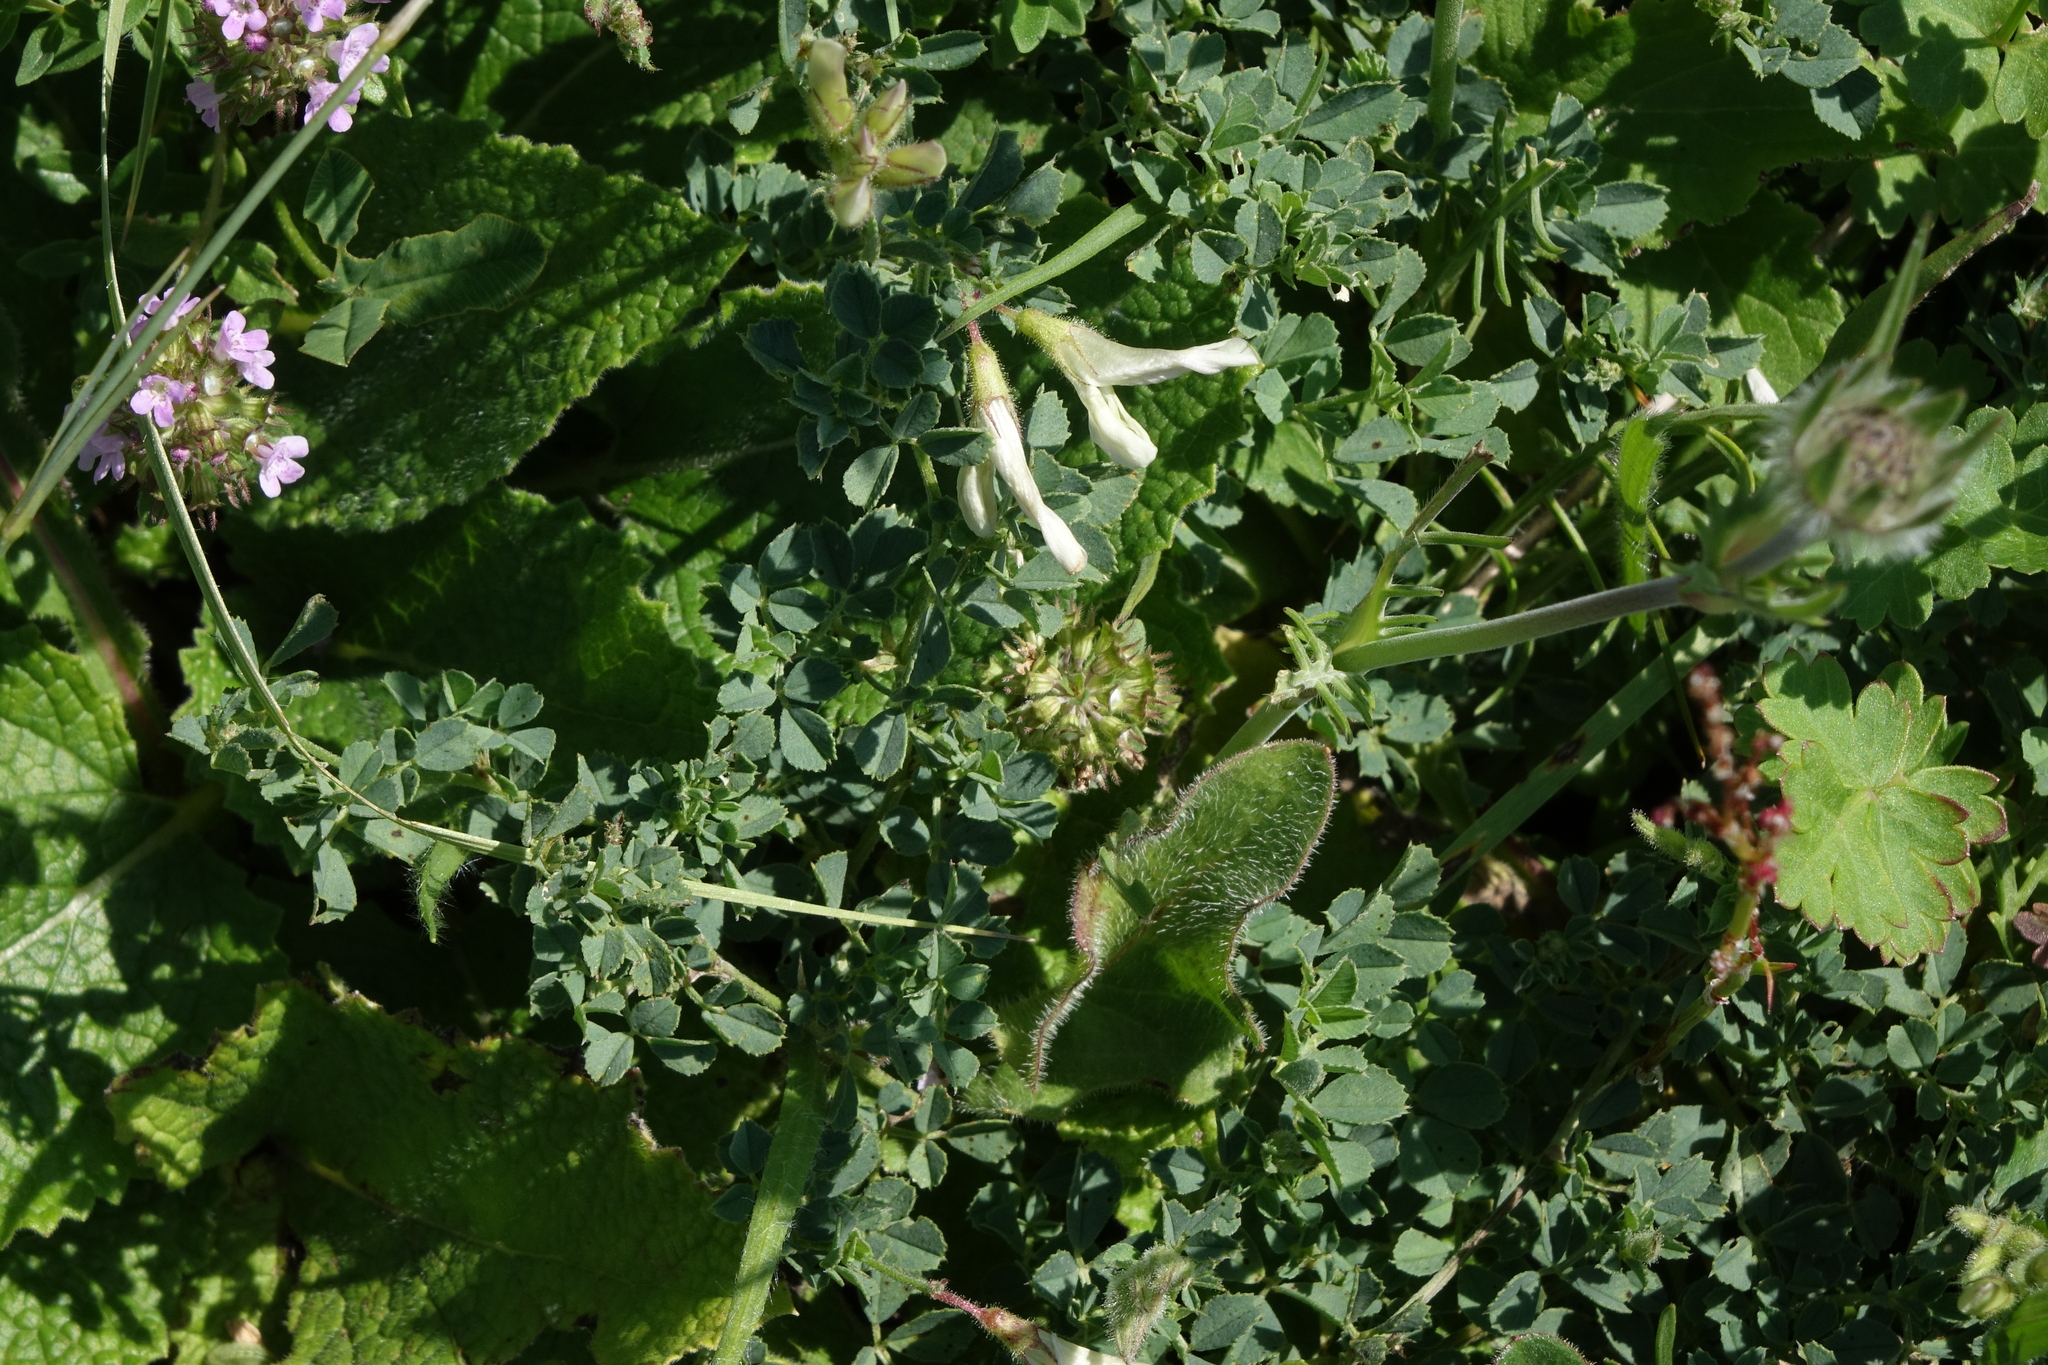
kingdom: Plantae
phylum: Tracheophyta
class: Magnoliopsida
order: Fabales
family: Fabaceae
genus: Medicago
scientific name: Medicago
